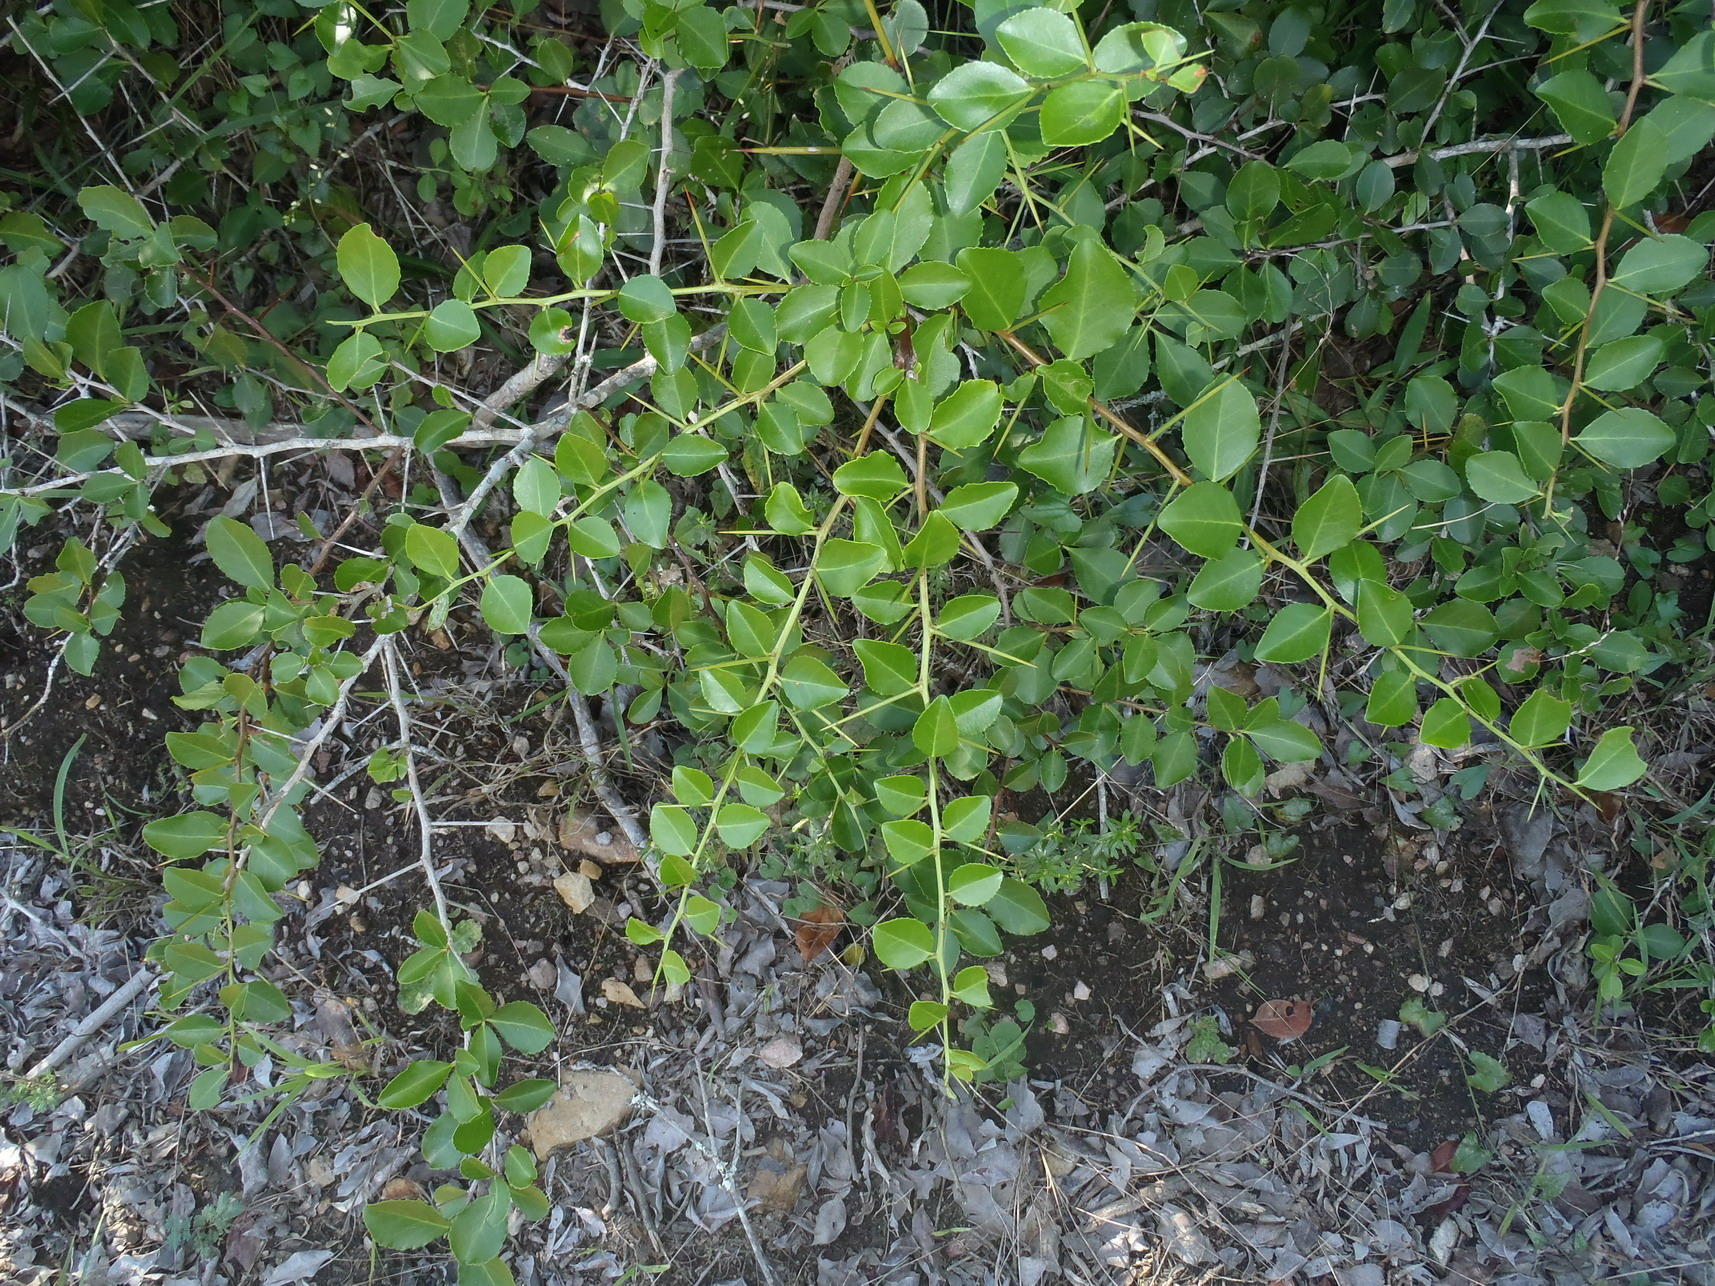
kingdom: Plantae
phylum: Tracheophyta
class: Magnoliopsida
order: Celastrales
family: Celastraceae
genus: Gymnosporia
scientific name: Gymnosporia nemorosa
